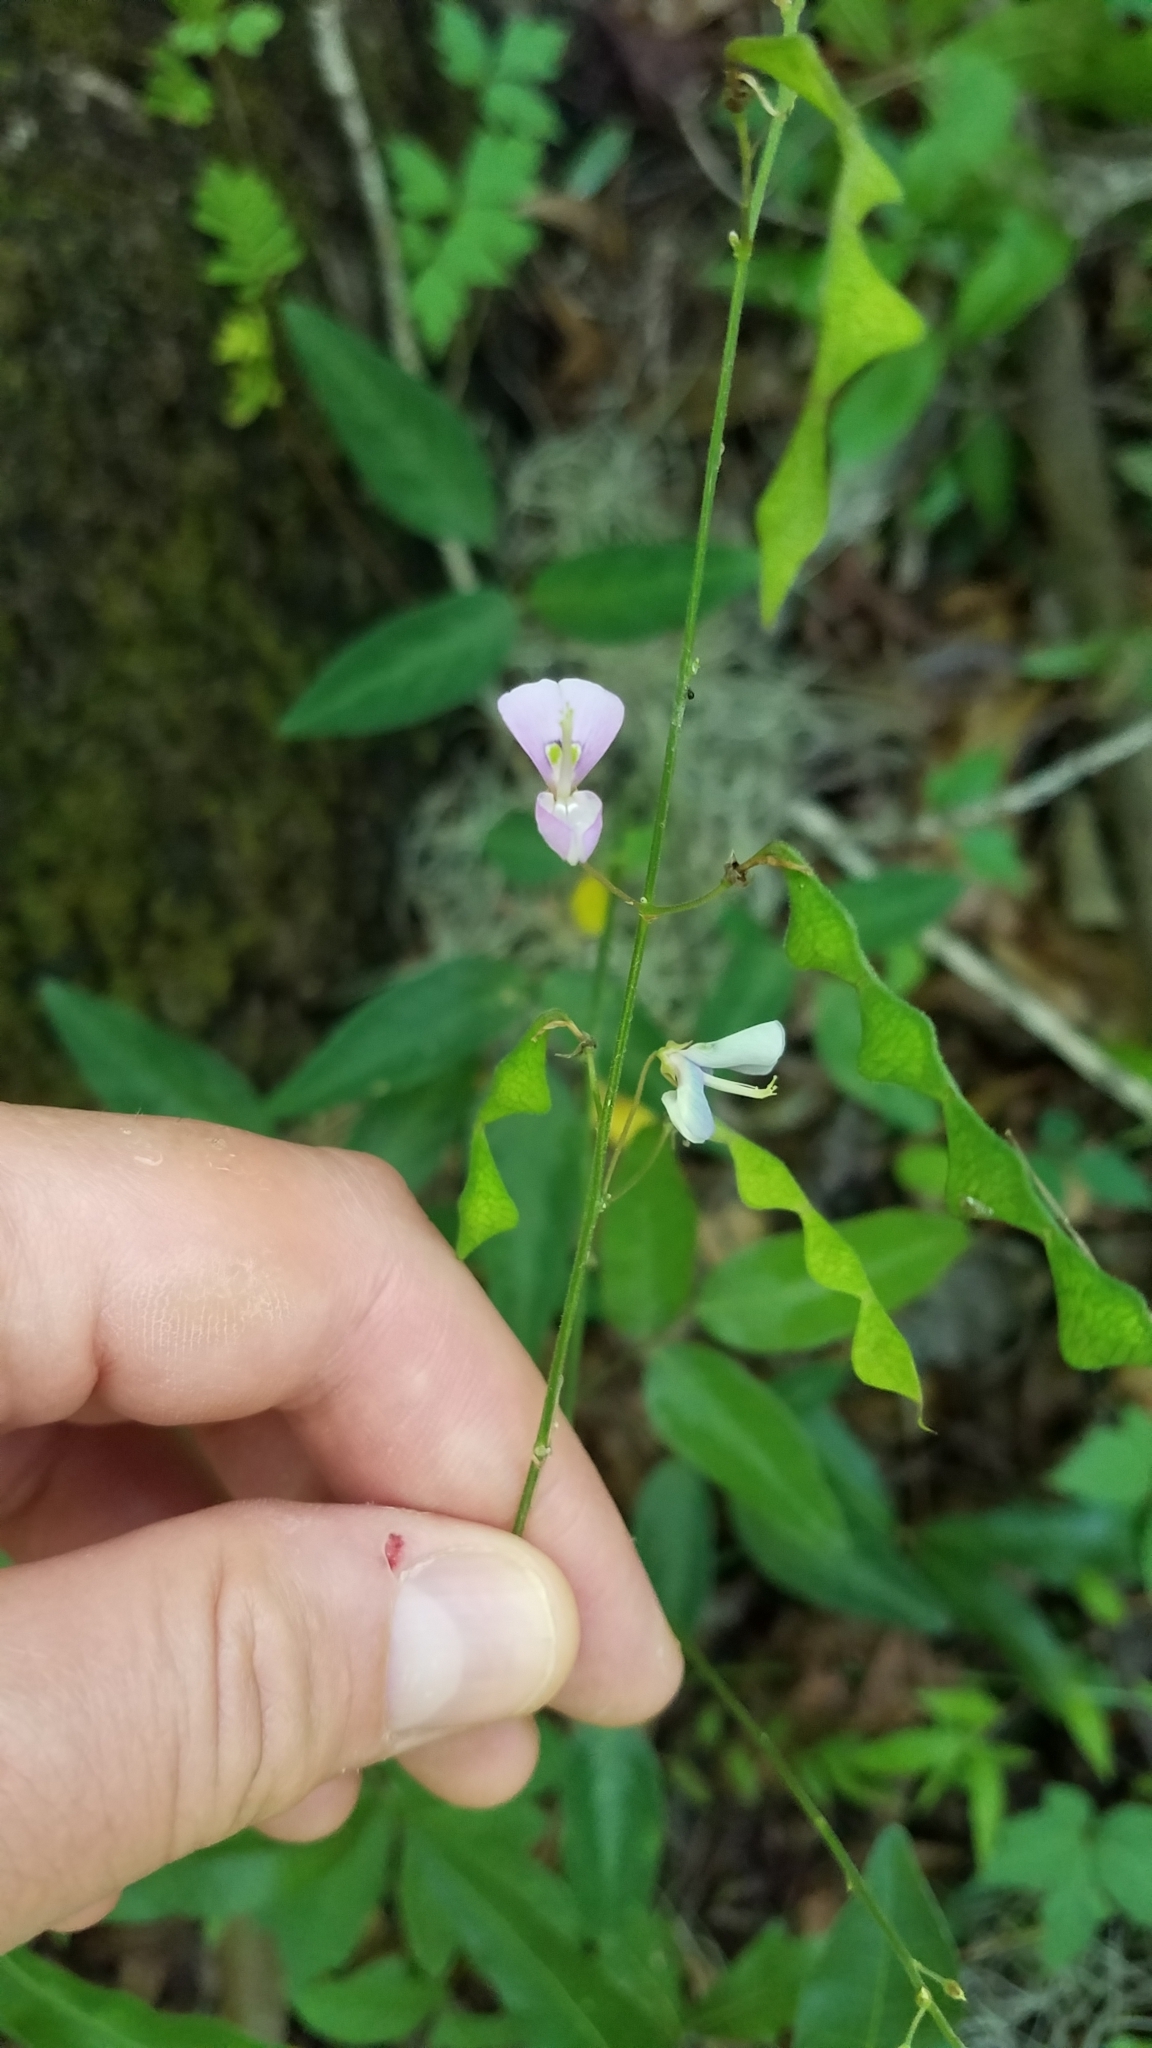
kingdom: Plantae
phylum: Tracheophyta
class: Magnoliopsida
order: Fabales
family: Fabaceae
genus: Desmodium
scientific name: Desmodium paniculatum
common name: Panicled tick-clover
